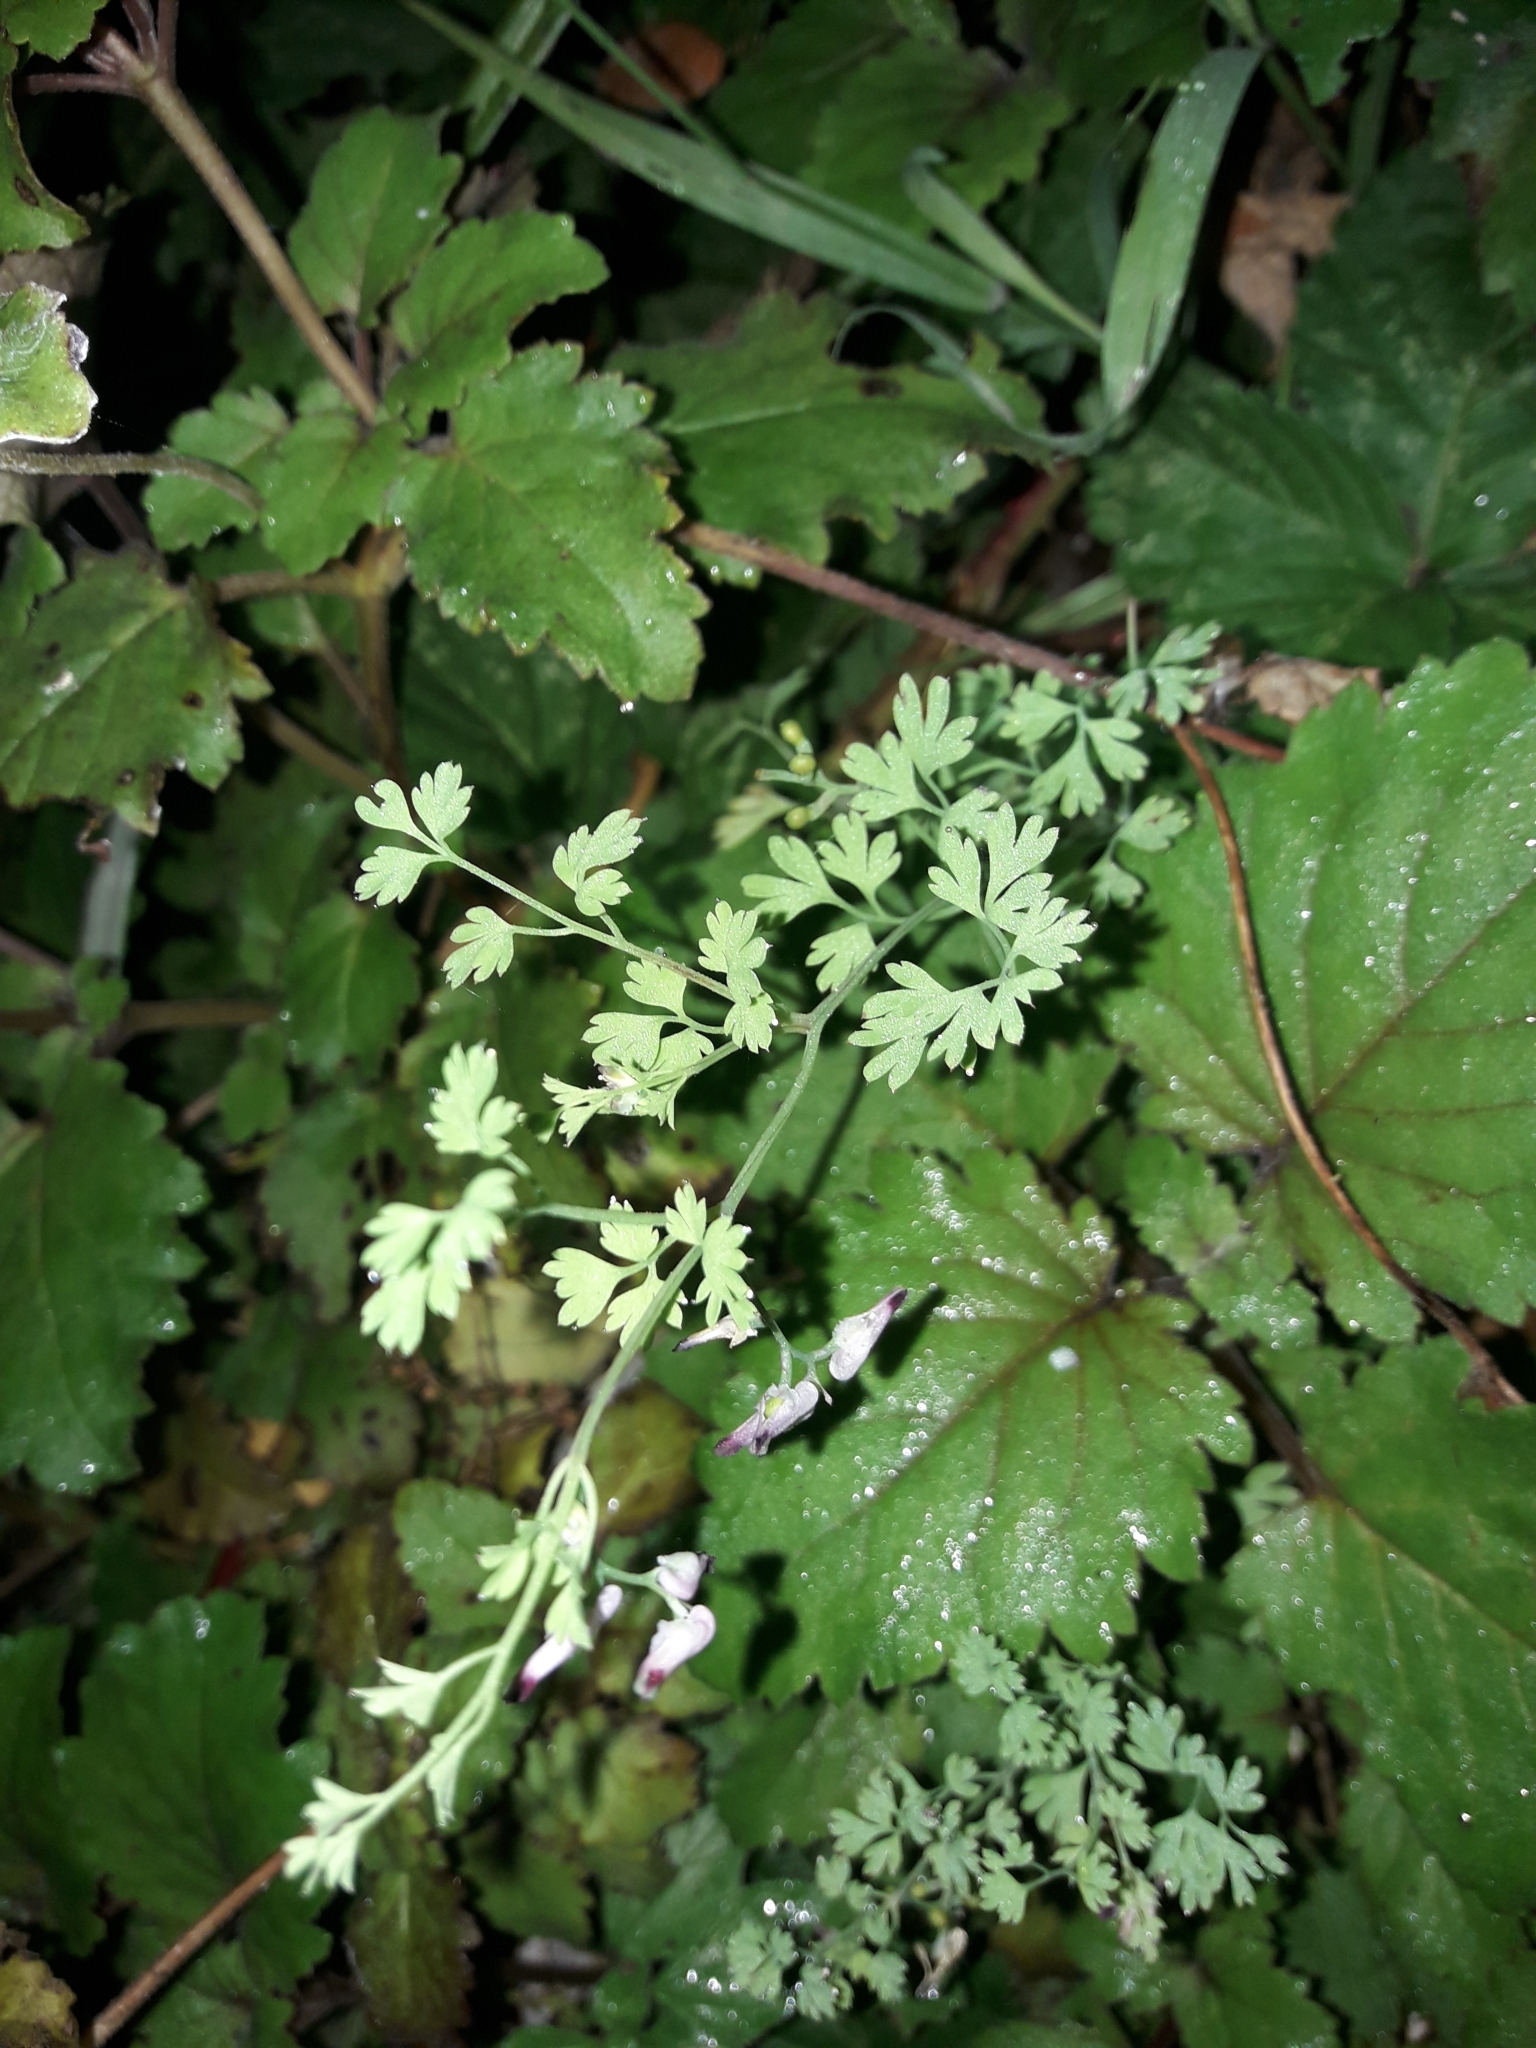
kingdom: Plantae
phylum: Tracheophyta
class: Magnoliopsida
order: Ranunculales
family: Papaveraceae
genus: Fumaria
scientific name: Fumaria muralis
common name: Common ramping-fumitory
